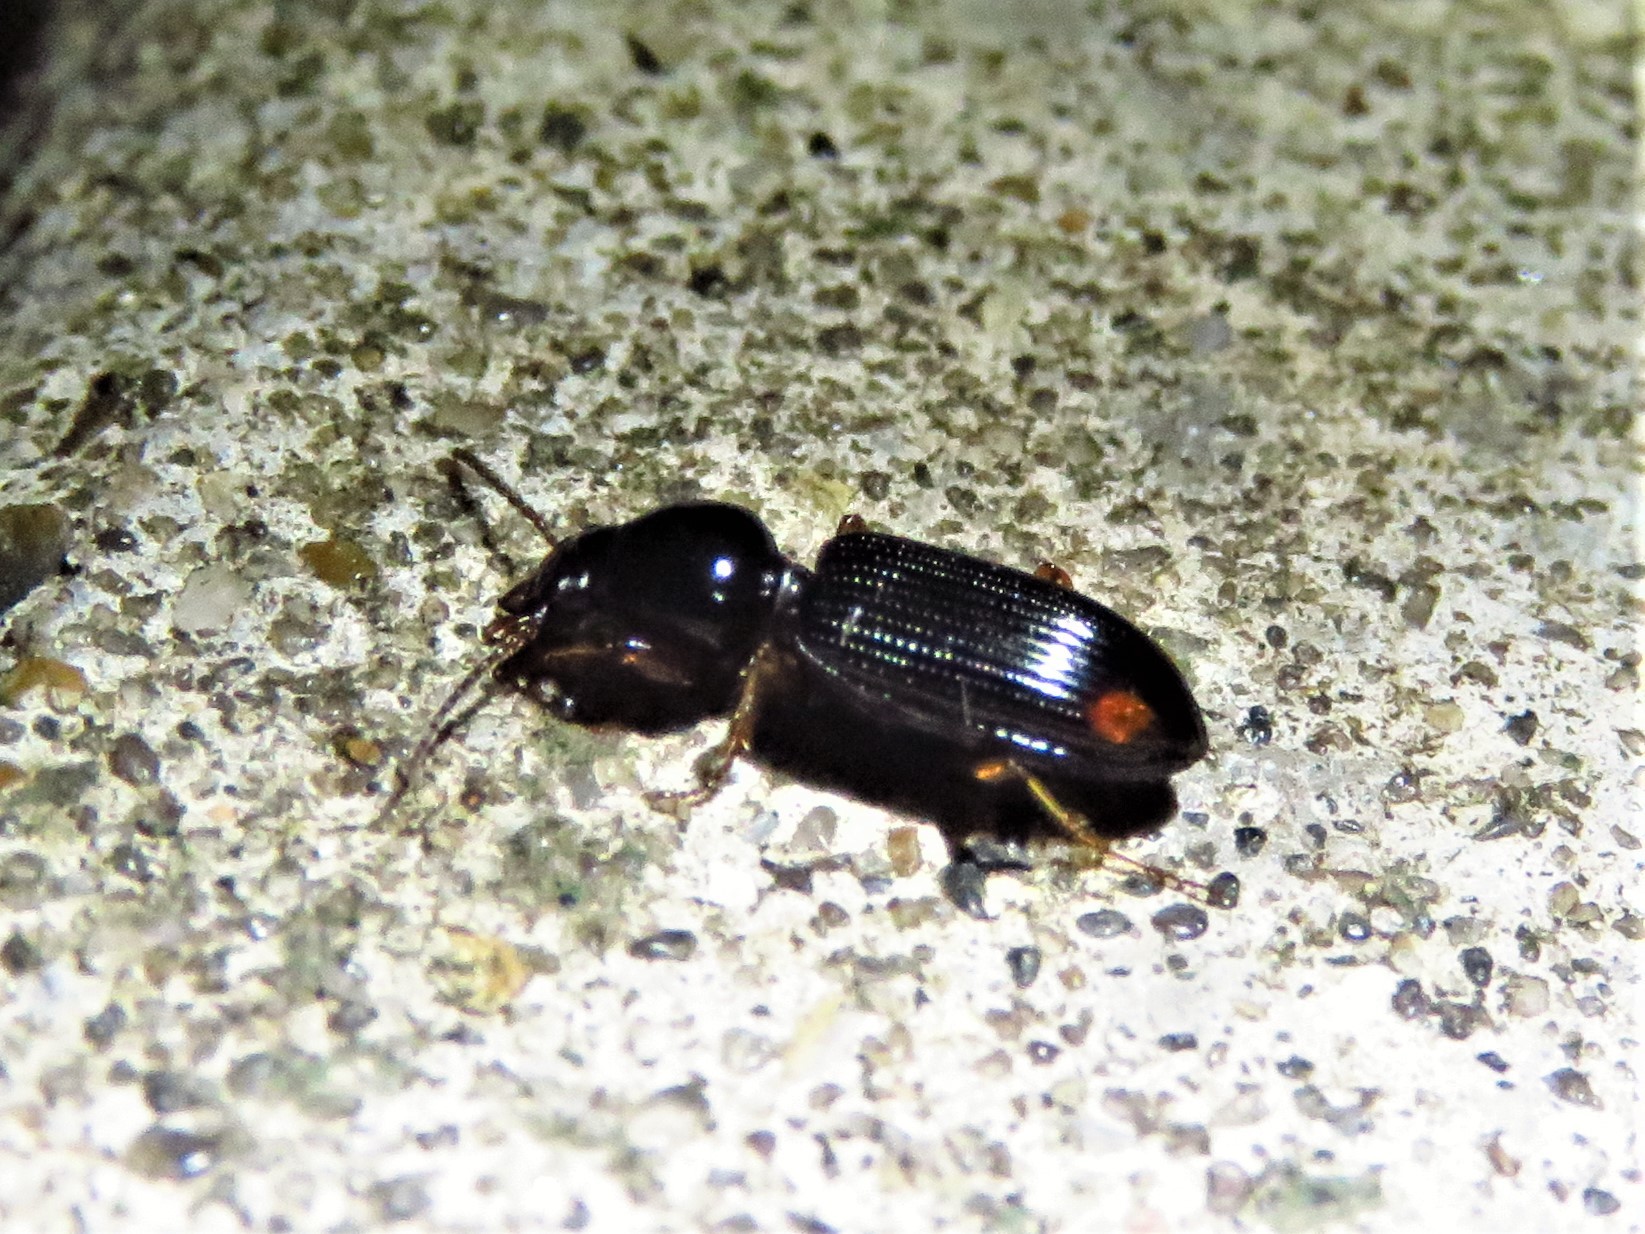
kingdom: Animalia
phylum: Arthropoda
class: Insecta
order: Coleoptera
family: Carabidae
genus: Aspidoglossa
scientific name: Aspidoglossa subangulata
